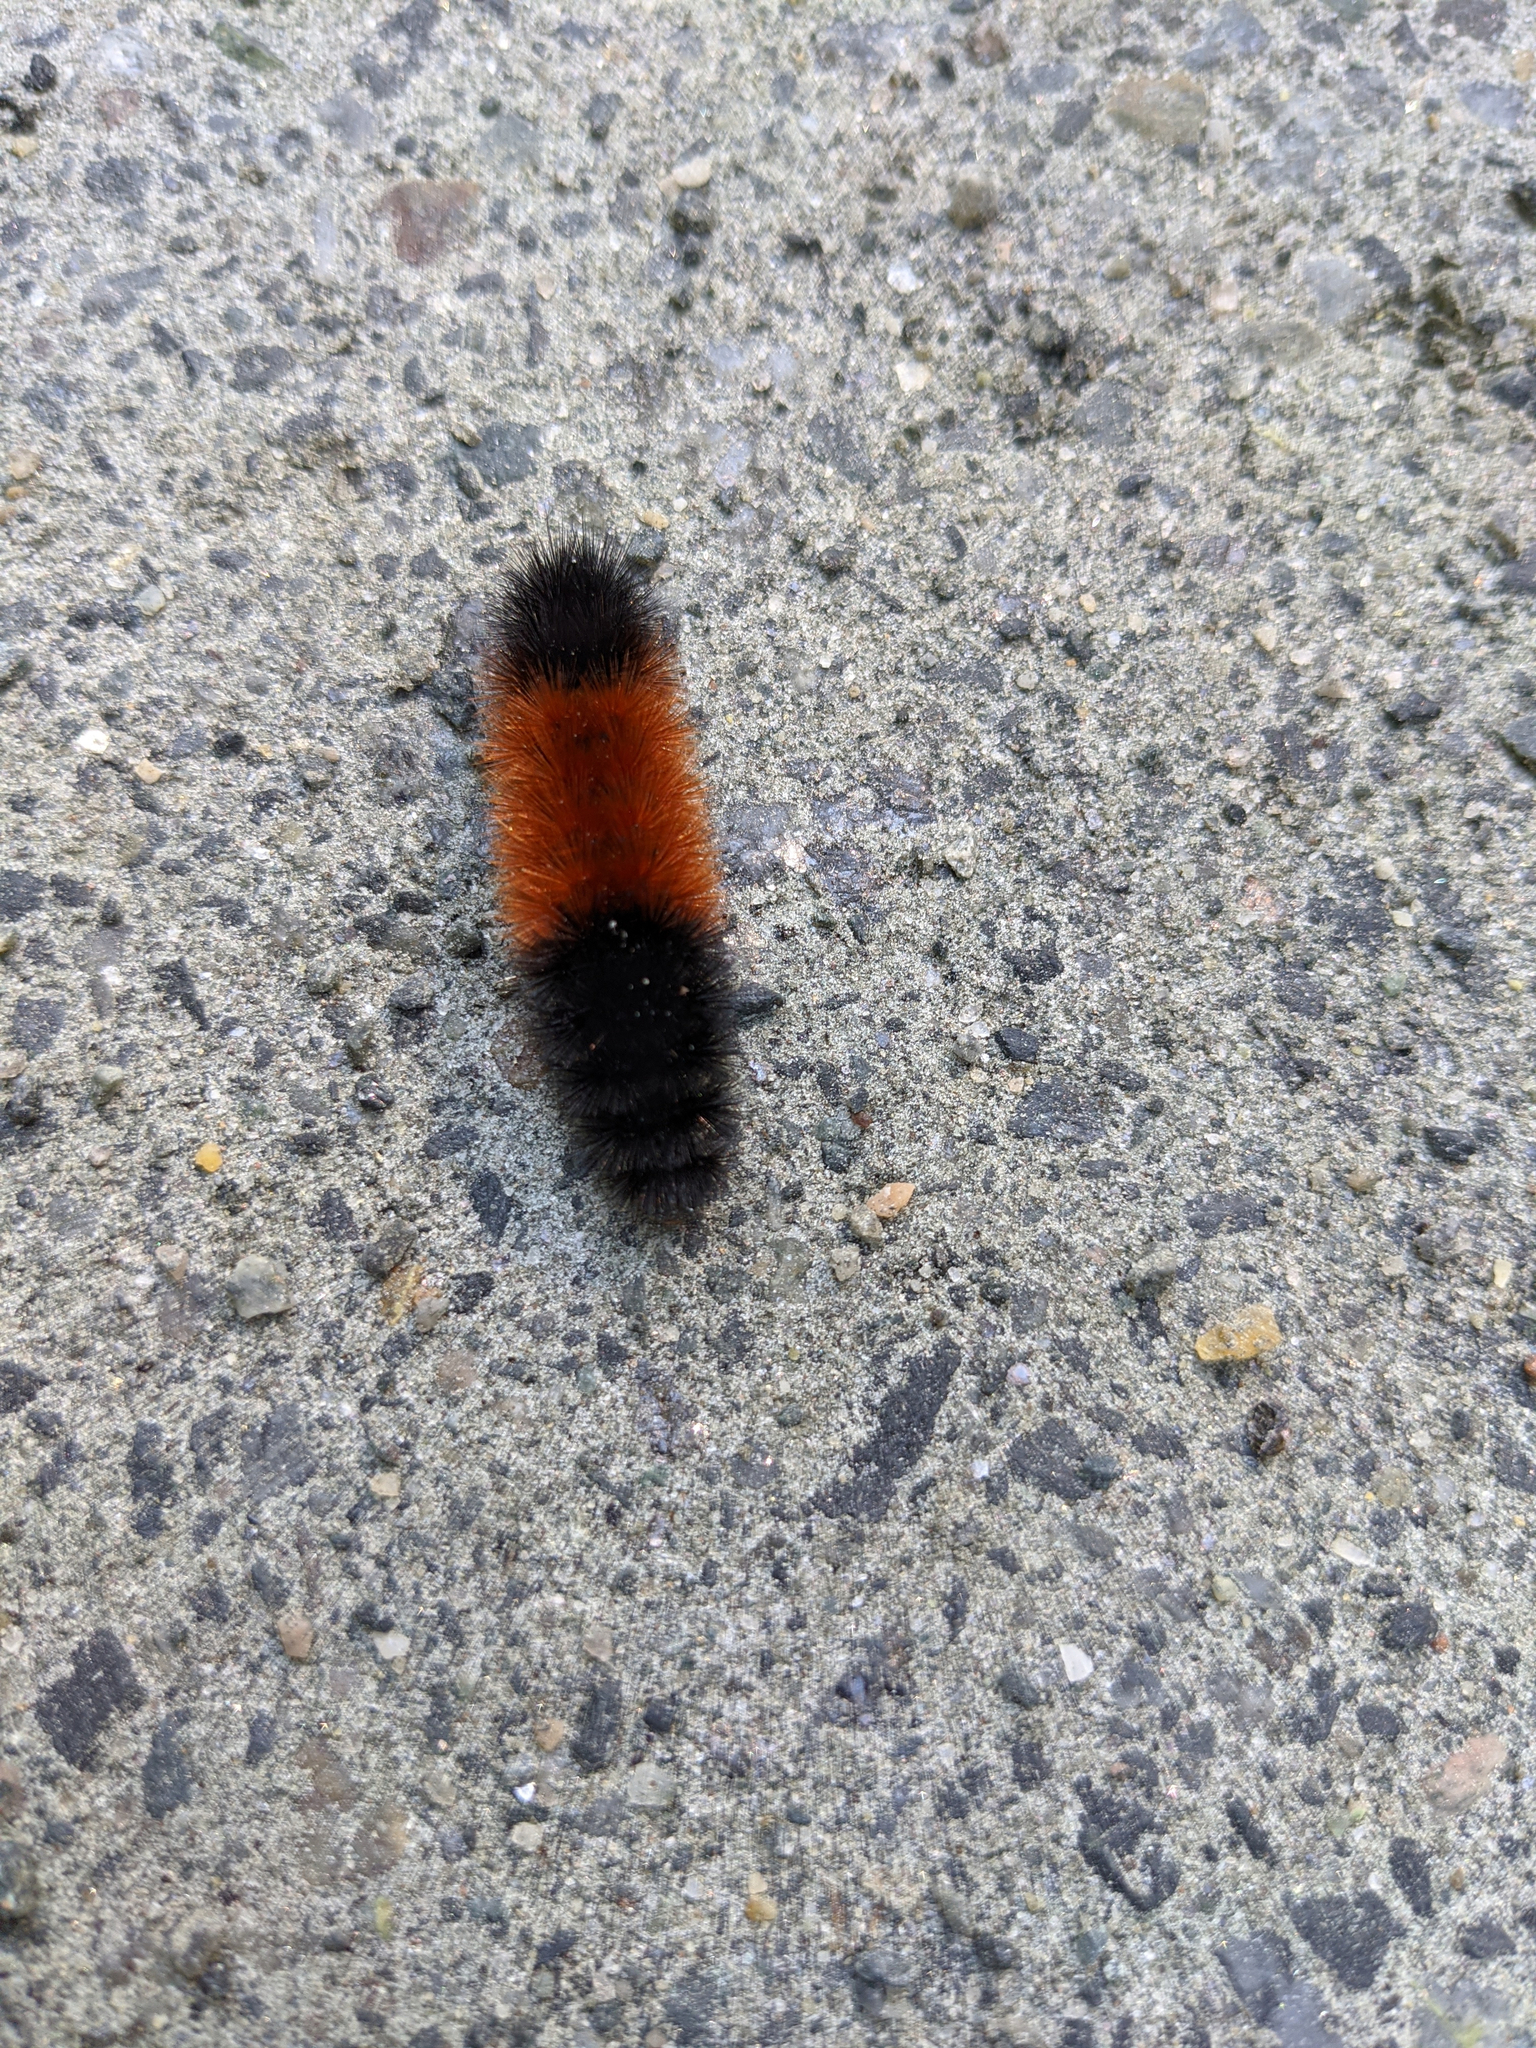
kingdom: Animalia
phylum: Arthropoda
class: Insecta
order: Lepidoptera
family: Erebidae
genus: Pyrrharctia
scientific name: Pyrrharctia isabella
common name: Isabella tiger moth
